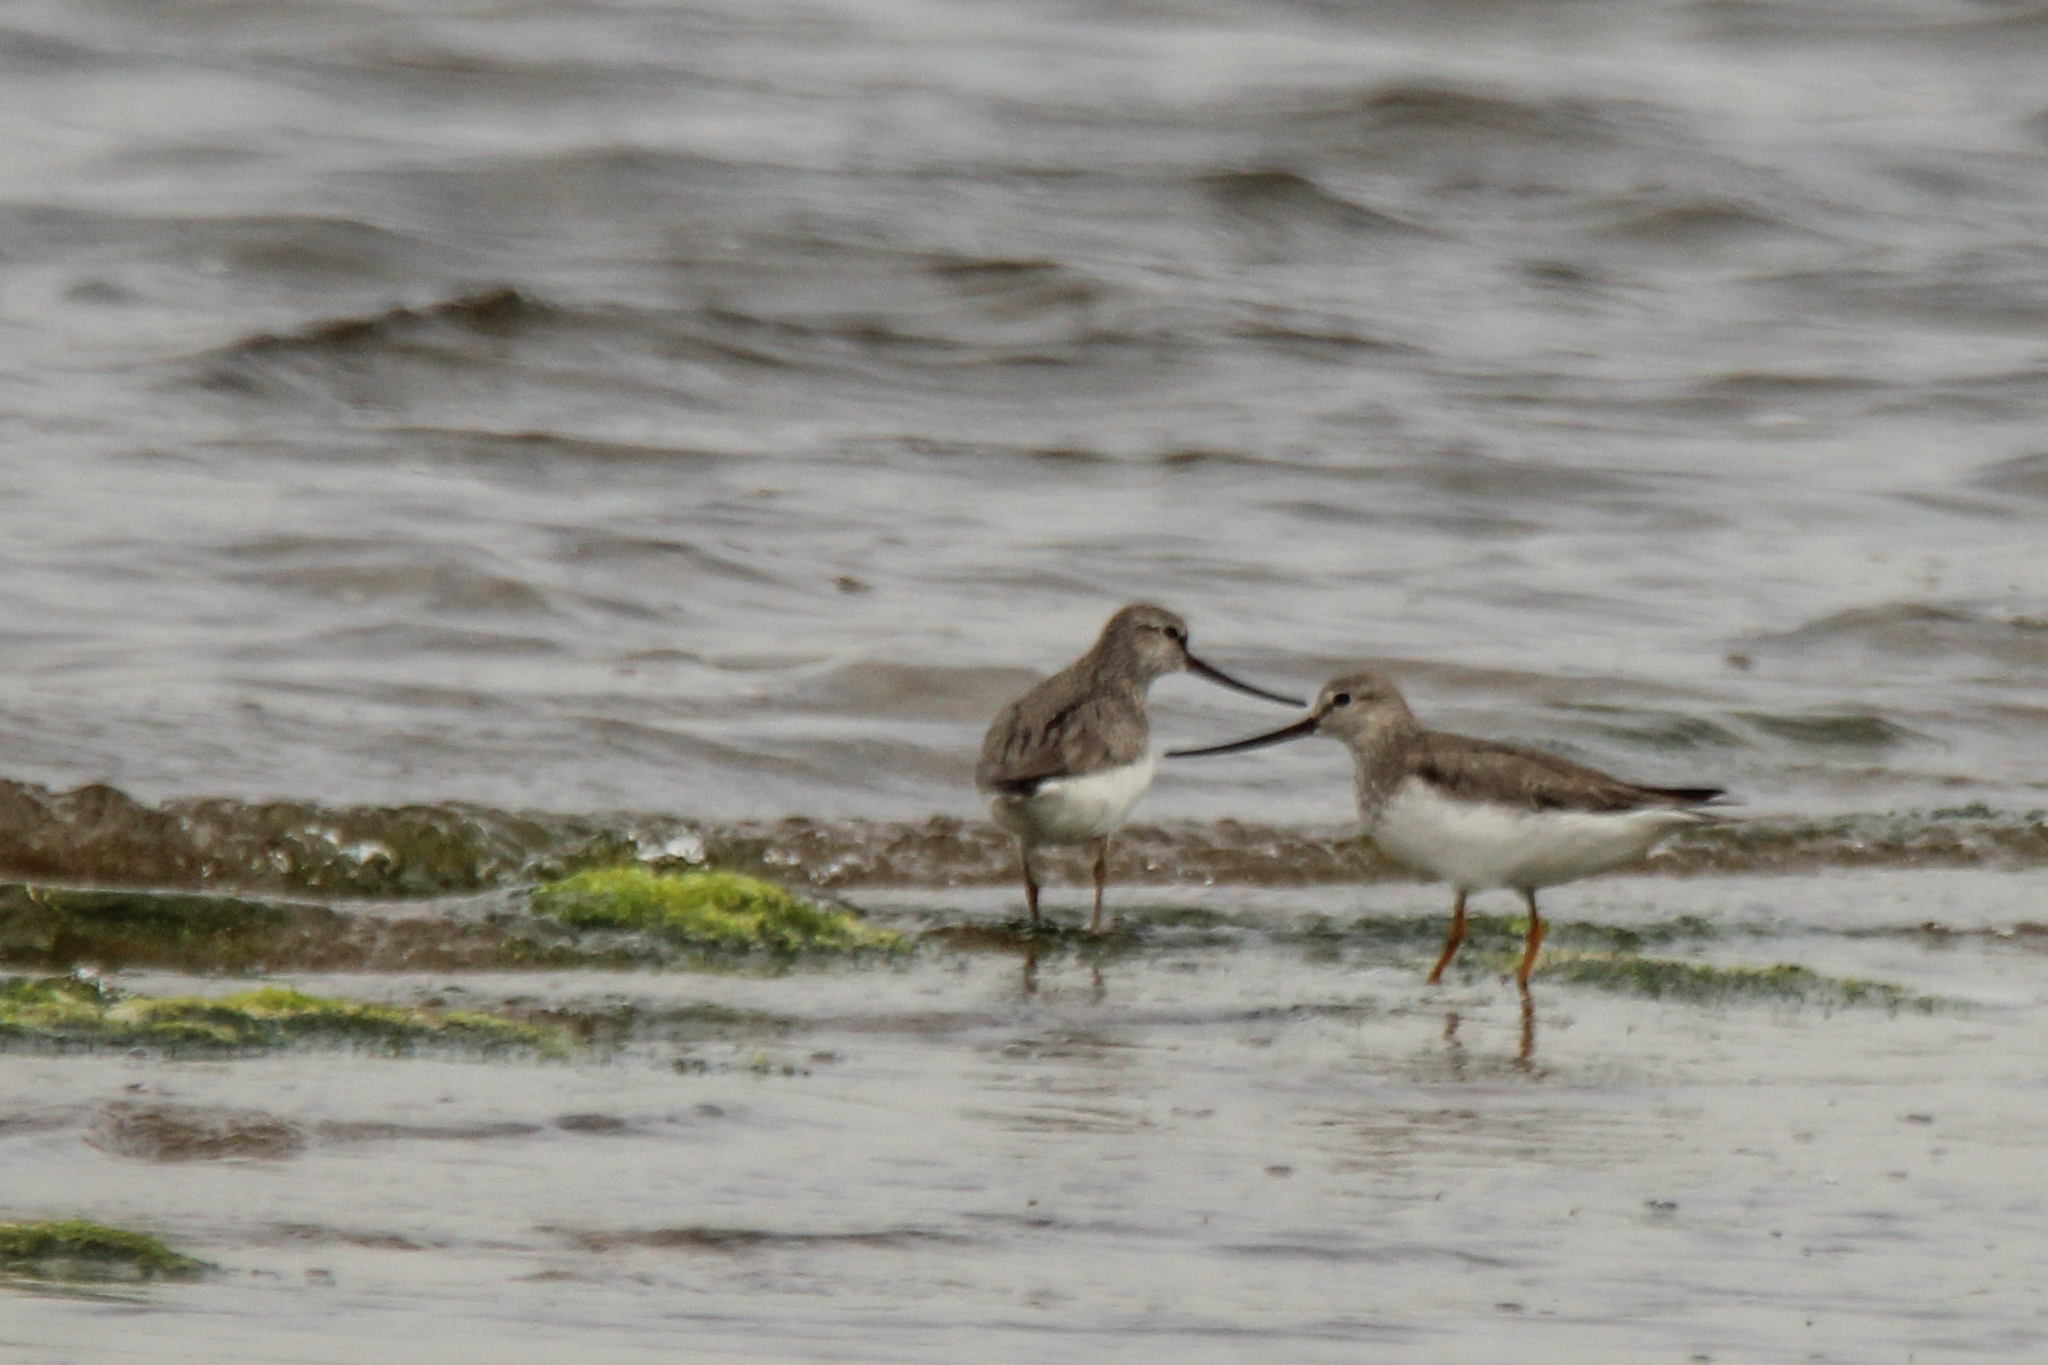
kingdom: Animalia
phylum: Chordata
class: Aves
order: Charadriiformes
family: Scolopacidae
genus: Xenus
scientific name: Xenus cinereus
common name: Terek sandpiper
